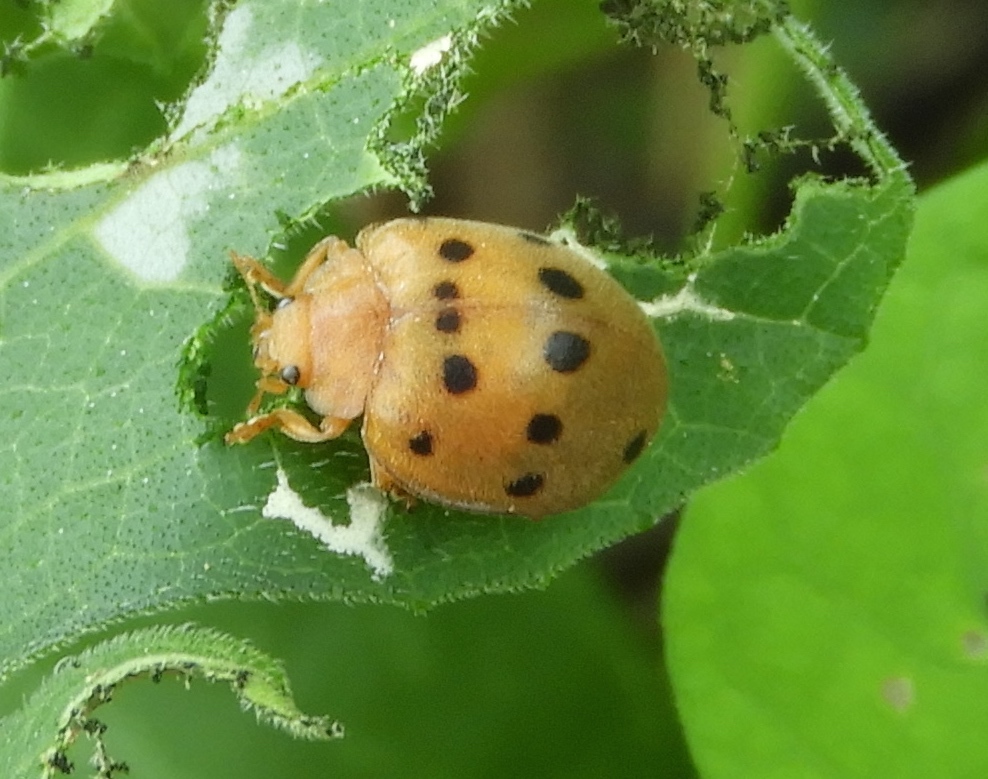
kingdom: Animalia
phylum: Arthropoda
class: Insecta
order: Coleoptera
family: Coccinellidae
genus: Epilachna
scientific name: Epilachna varivestis
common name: Ladybird beetle
